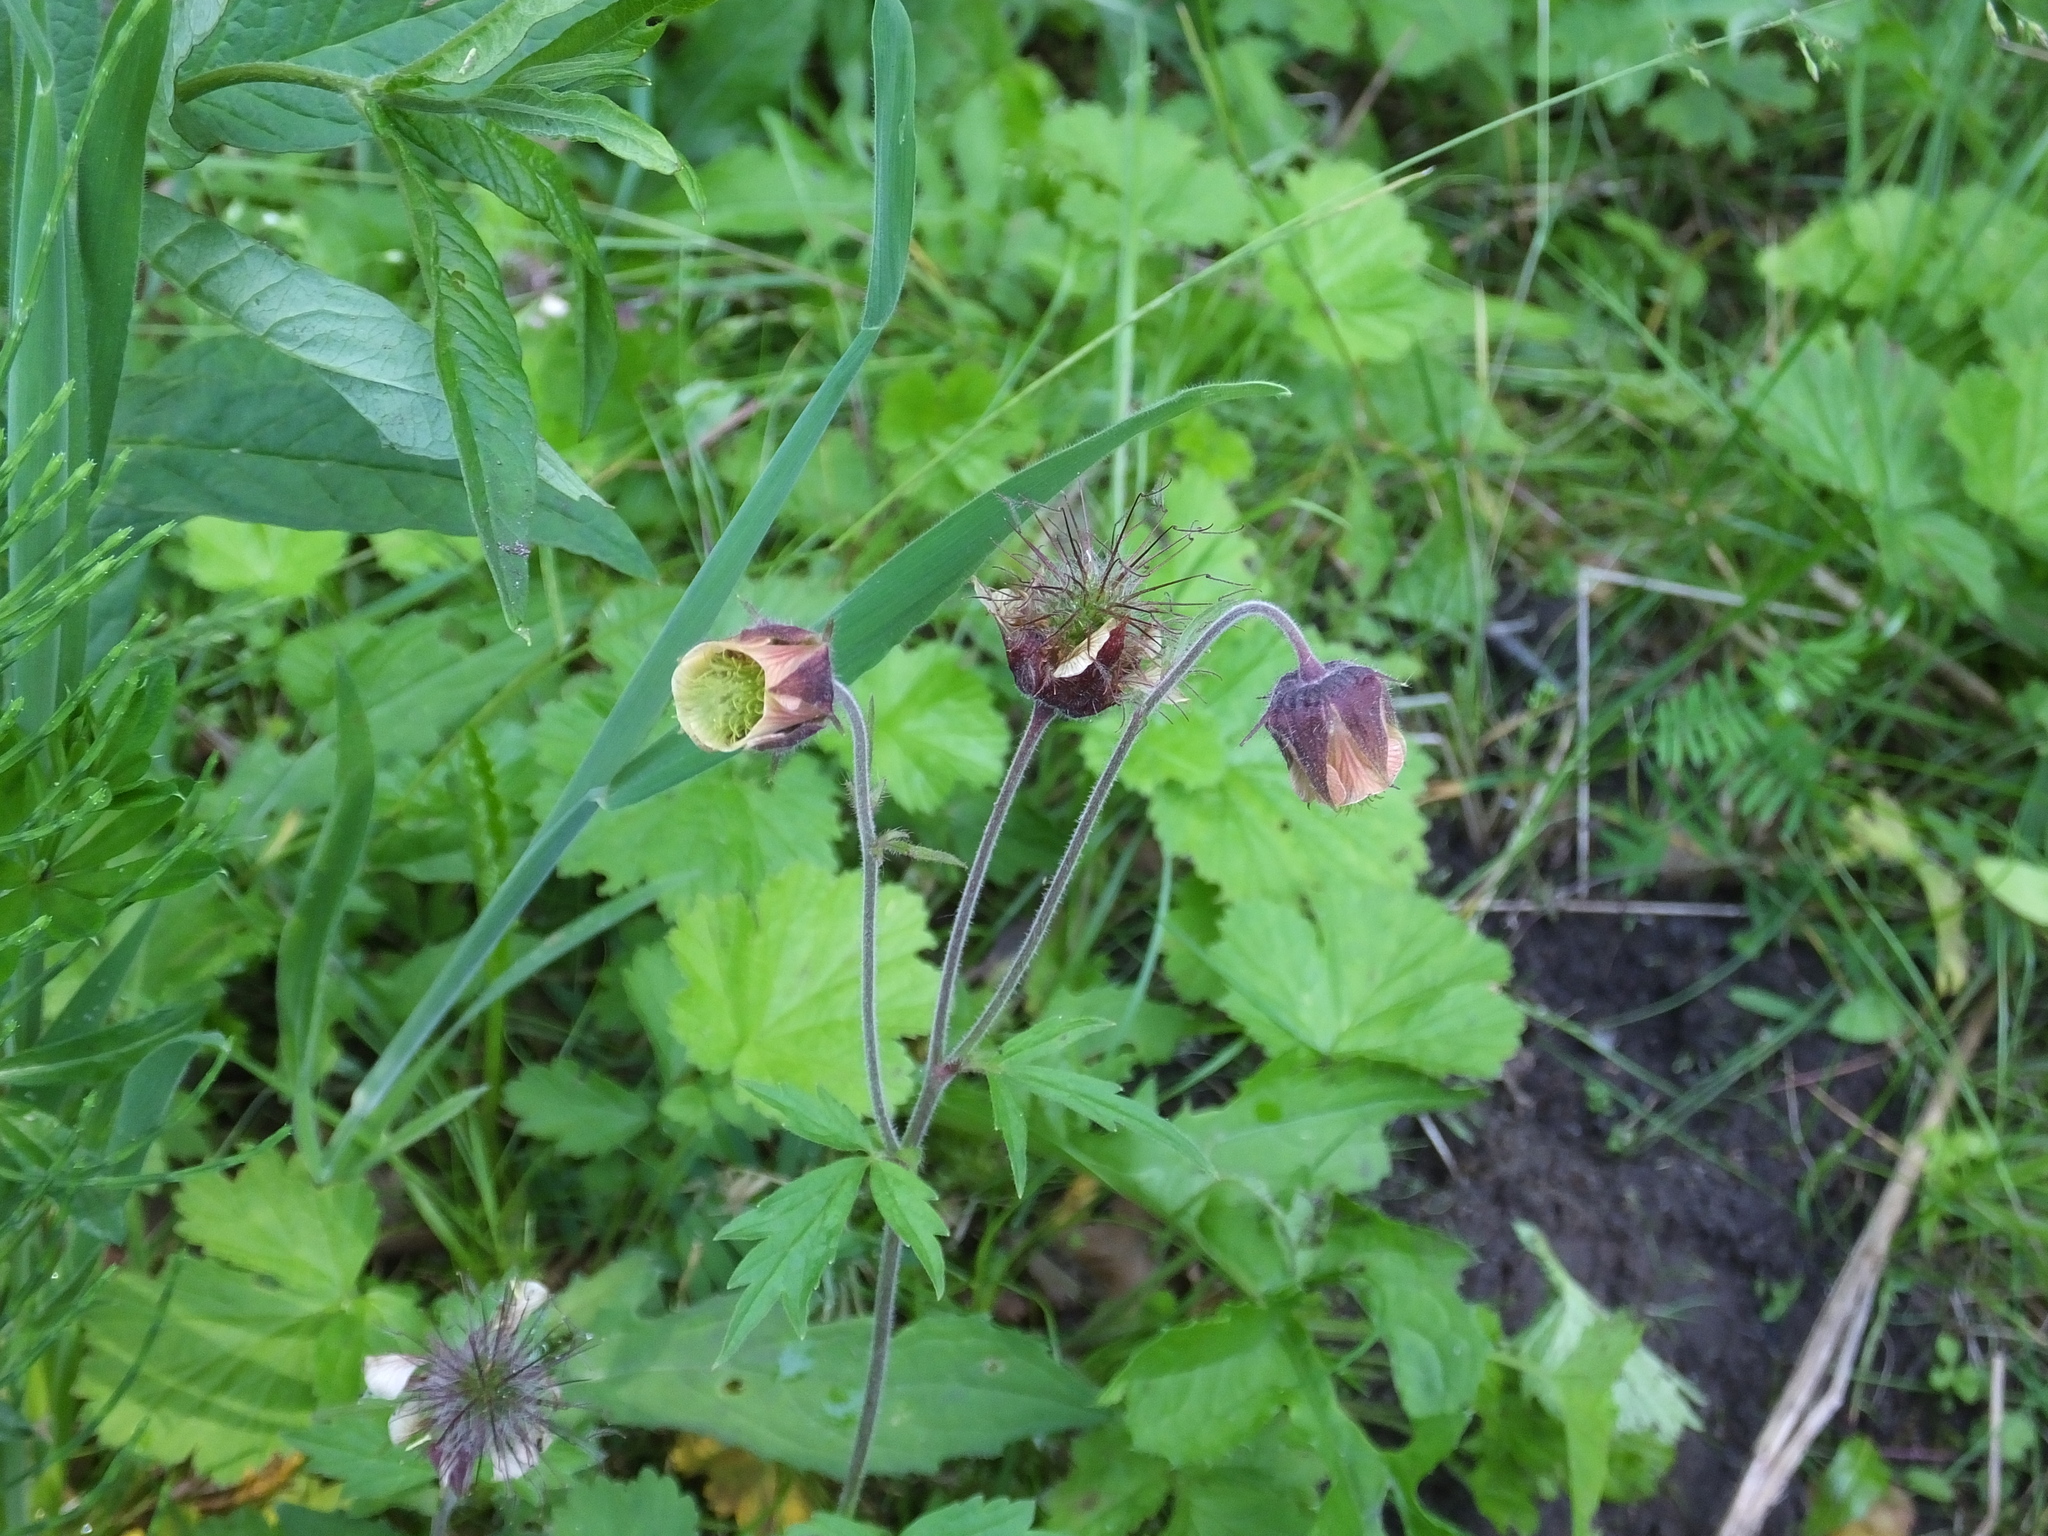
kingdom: Plantae
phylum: Tracheophyta
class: Magnoliopsida
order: Rosales
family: Rosaceae
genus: Geum
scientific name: Geum rivale
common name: Water avens
